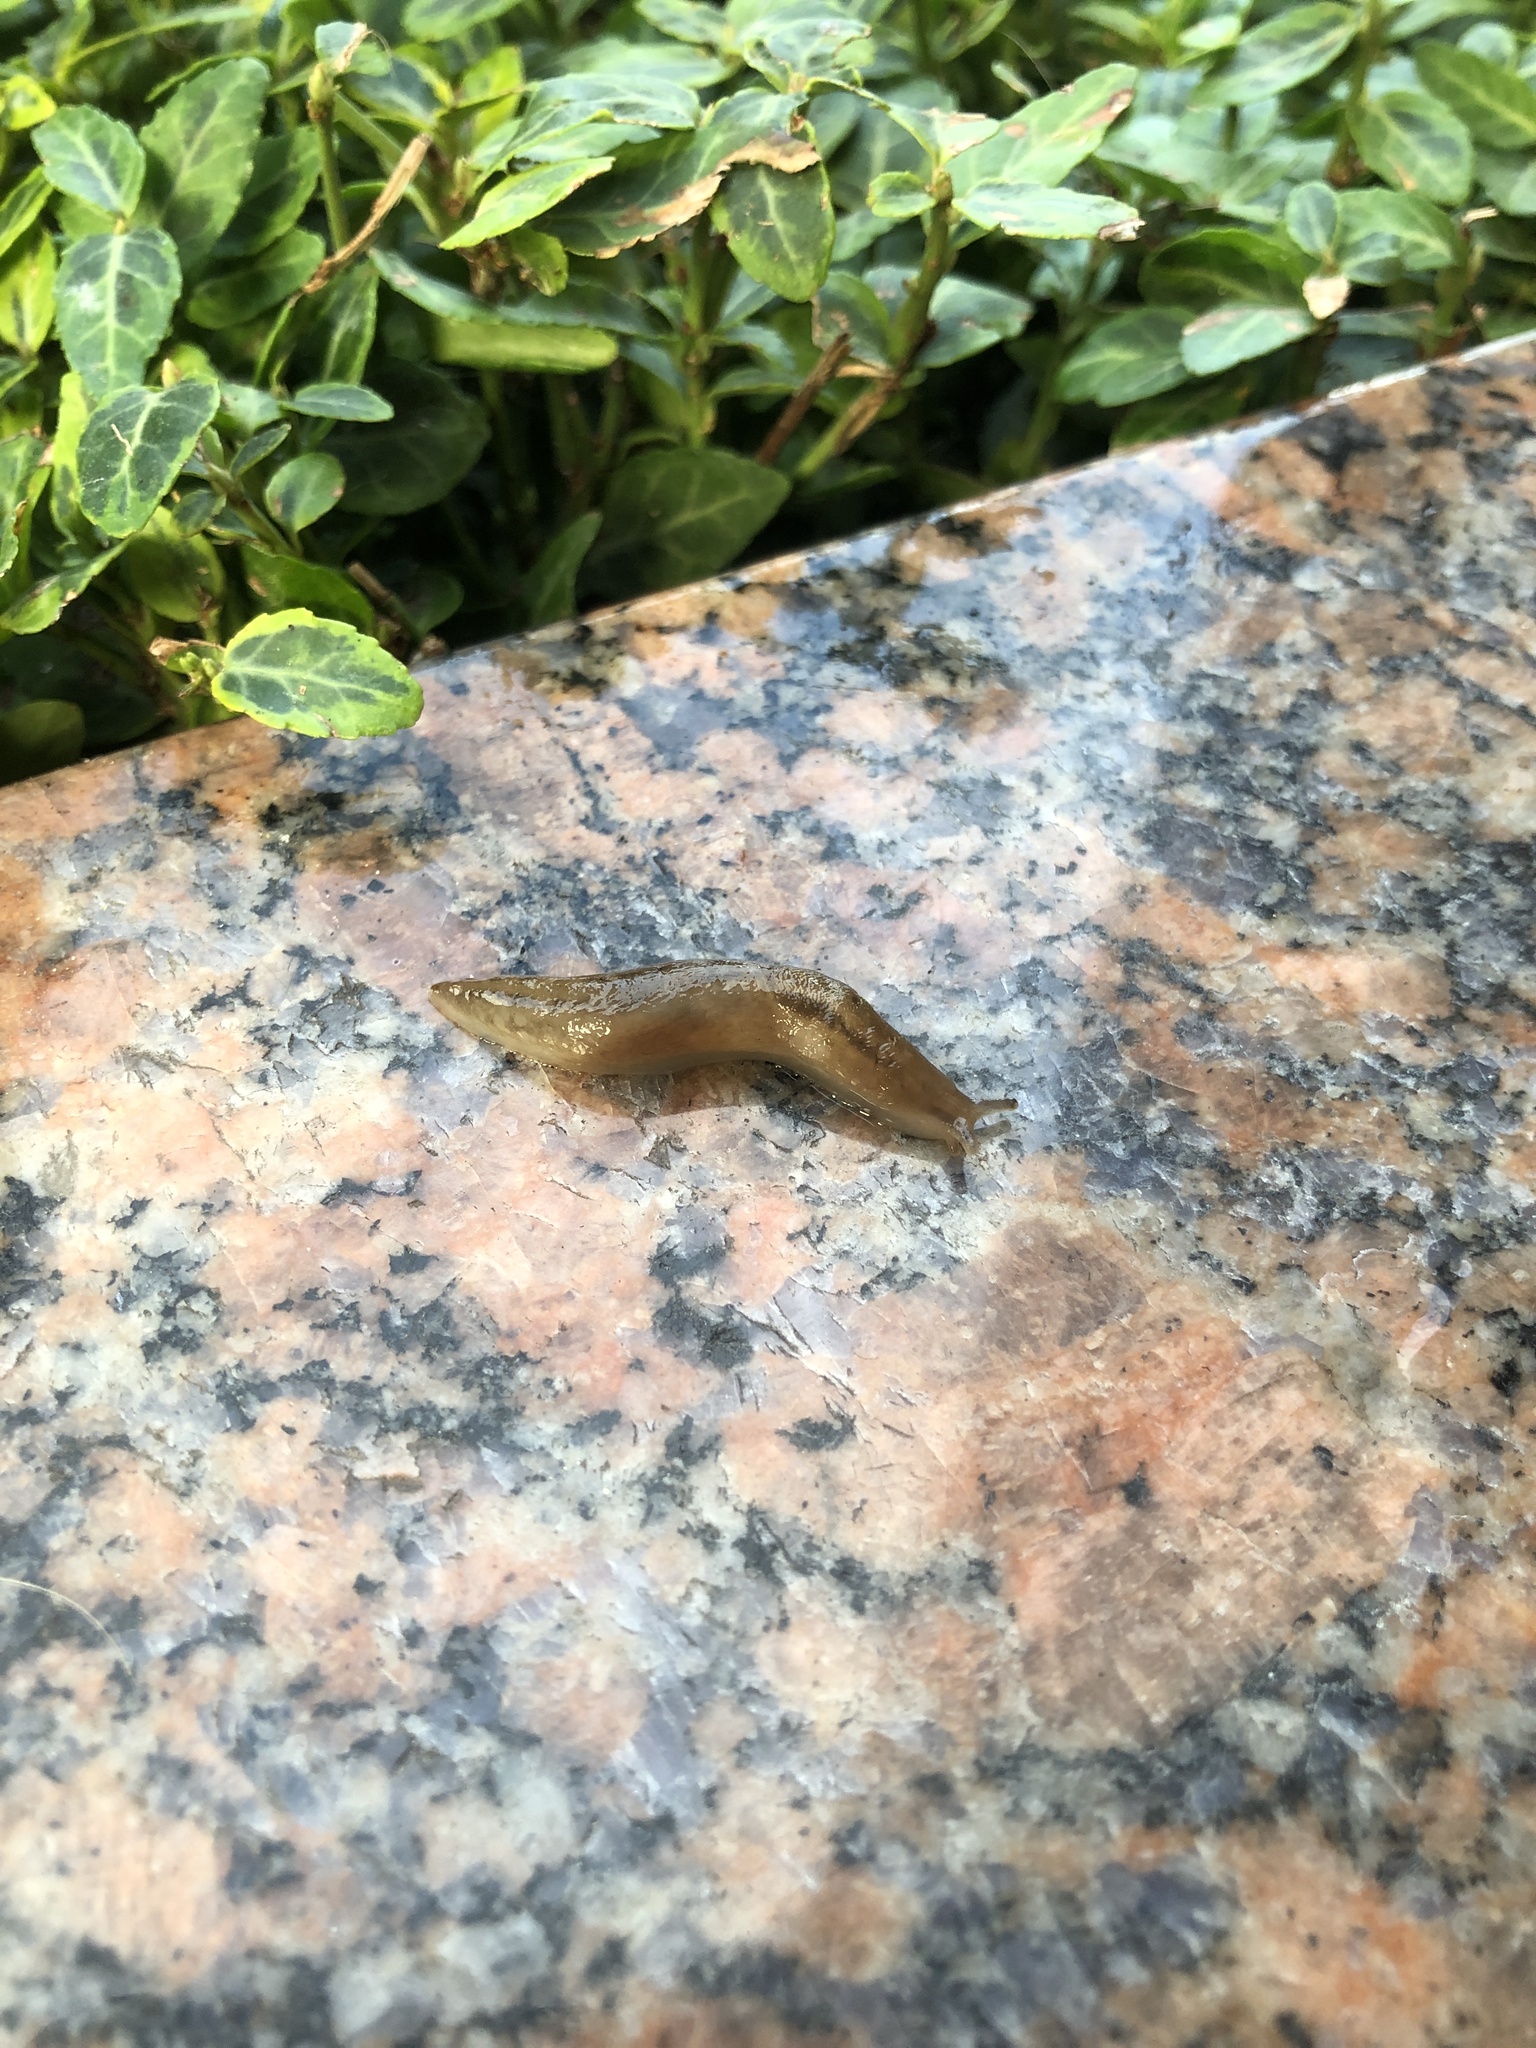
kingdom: Animalia
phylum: Mollusca
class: Gastropoda
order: Stylommatophora
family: Limacidae
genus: Ambigolimax
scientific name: Ambigolimax
